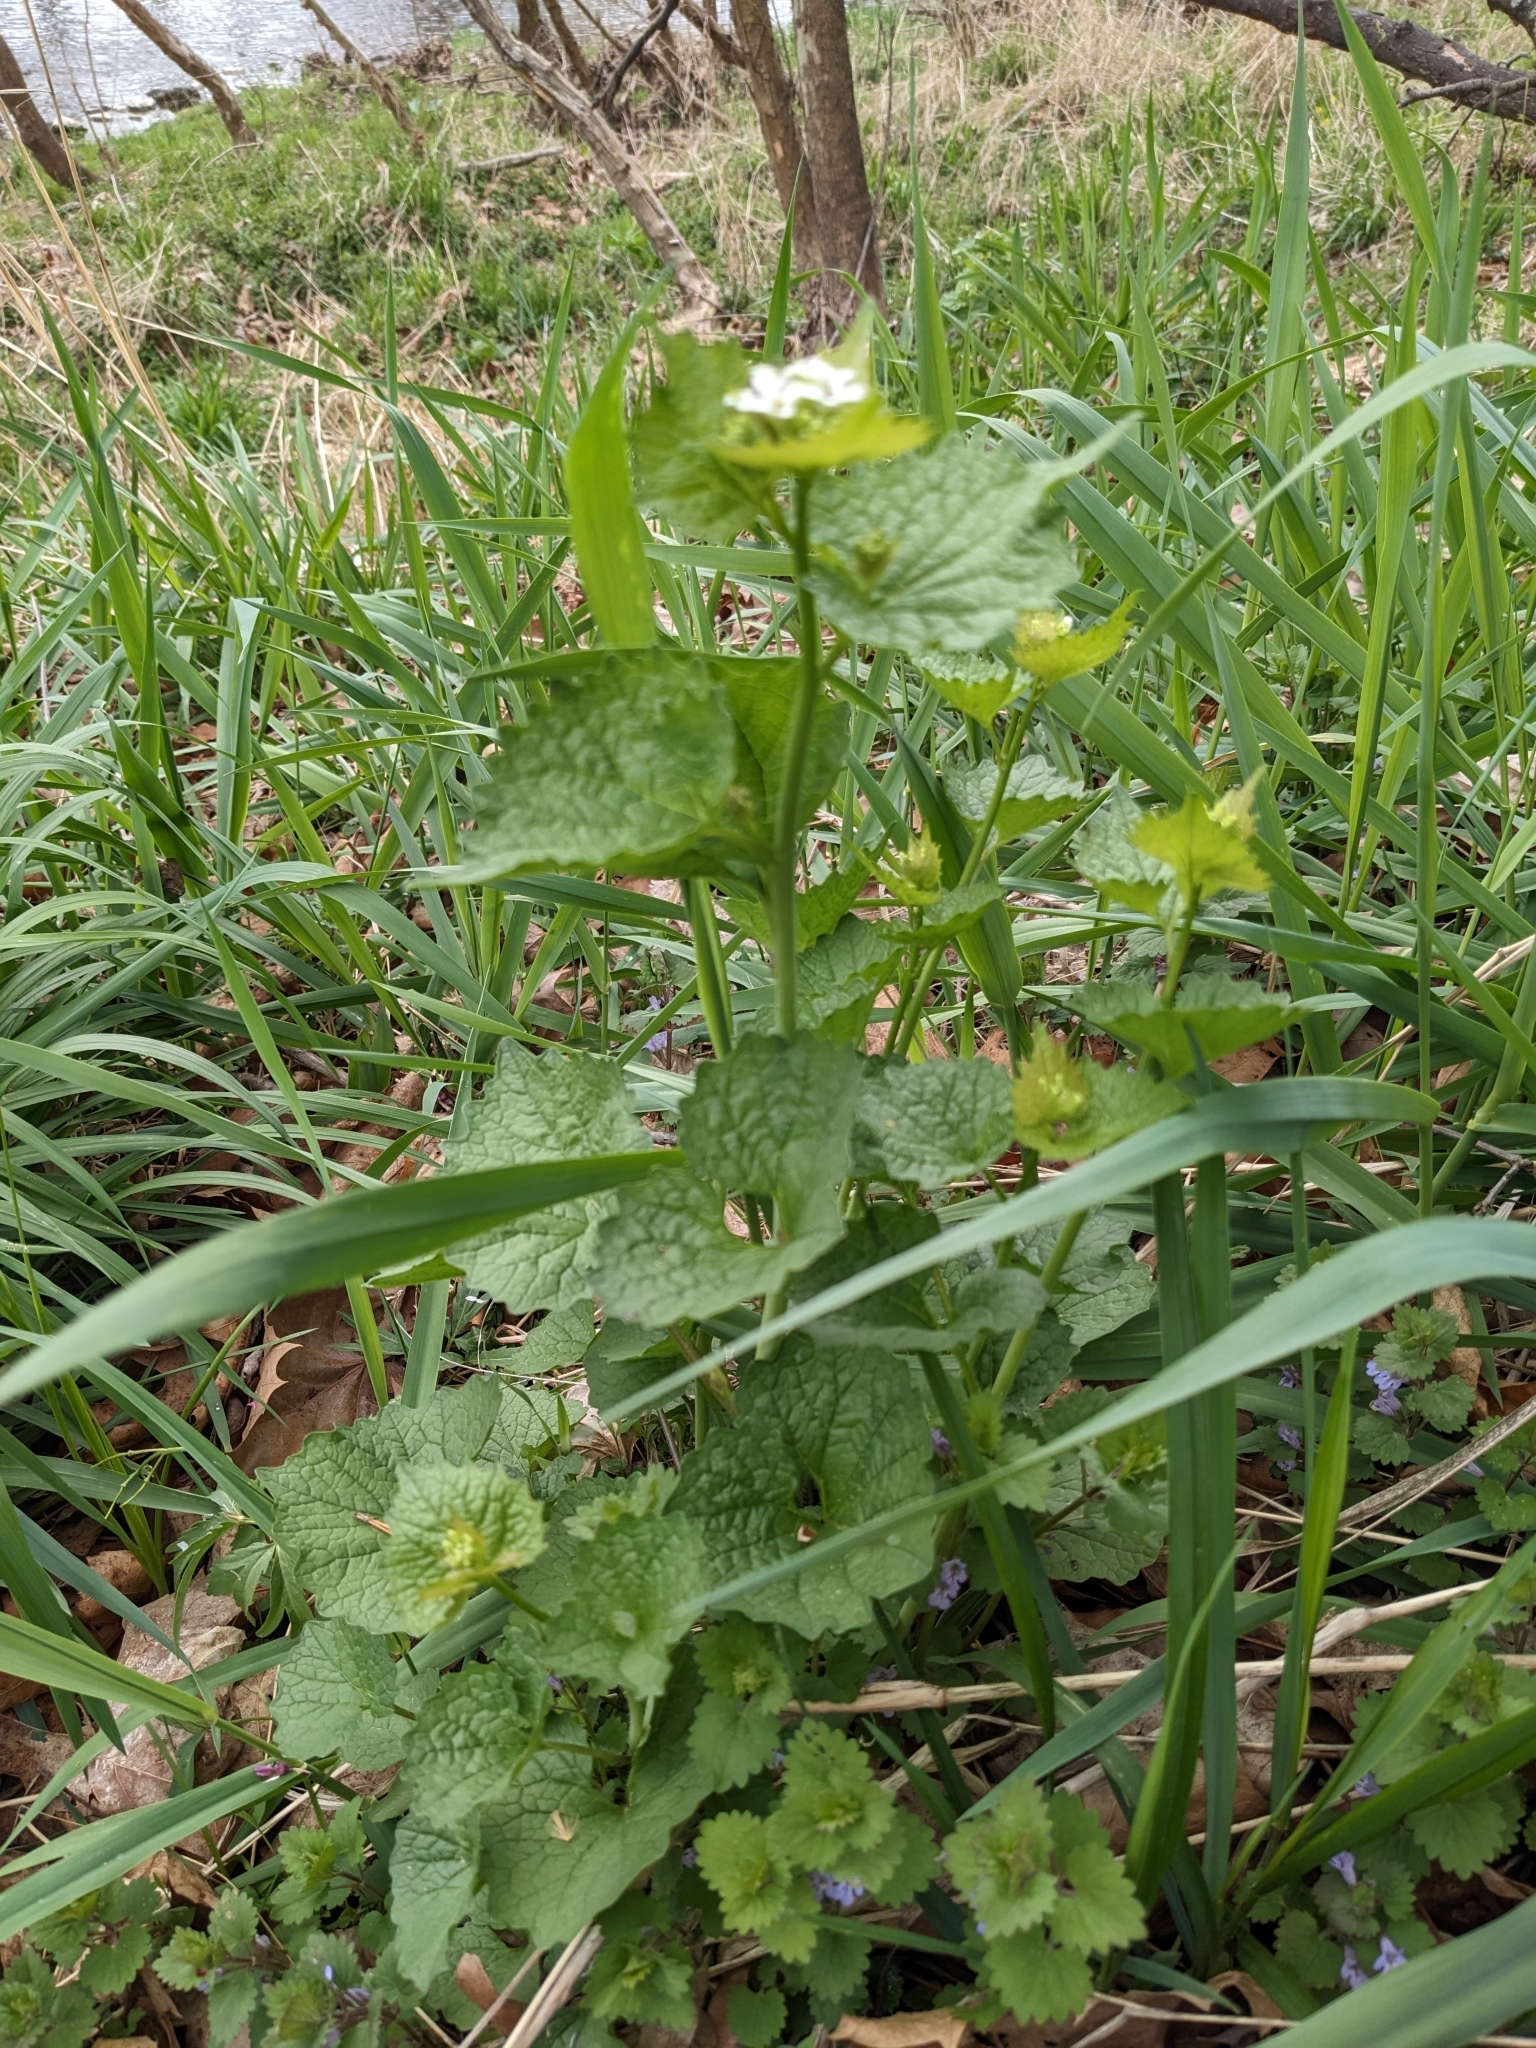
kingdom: Plantae
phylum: Tracheophyta
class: Magnoliopsida
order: Brassicales
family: Brassicaceae
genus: Alliaria
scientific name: Alliaria petiolata
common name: Garlic mustard
